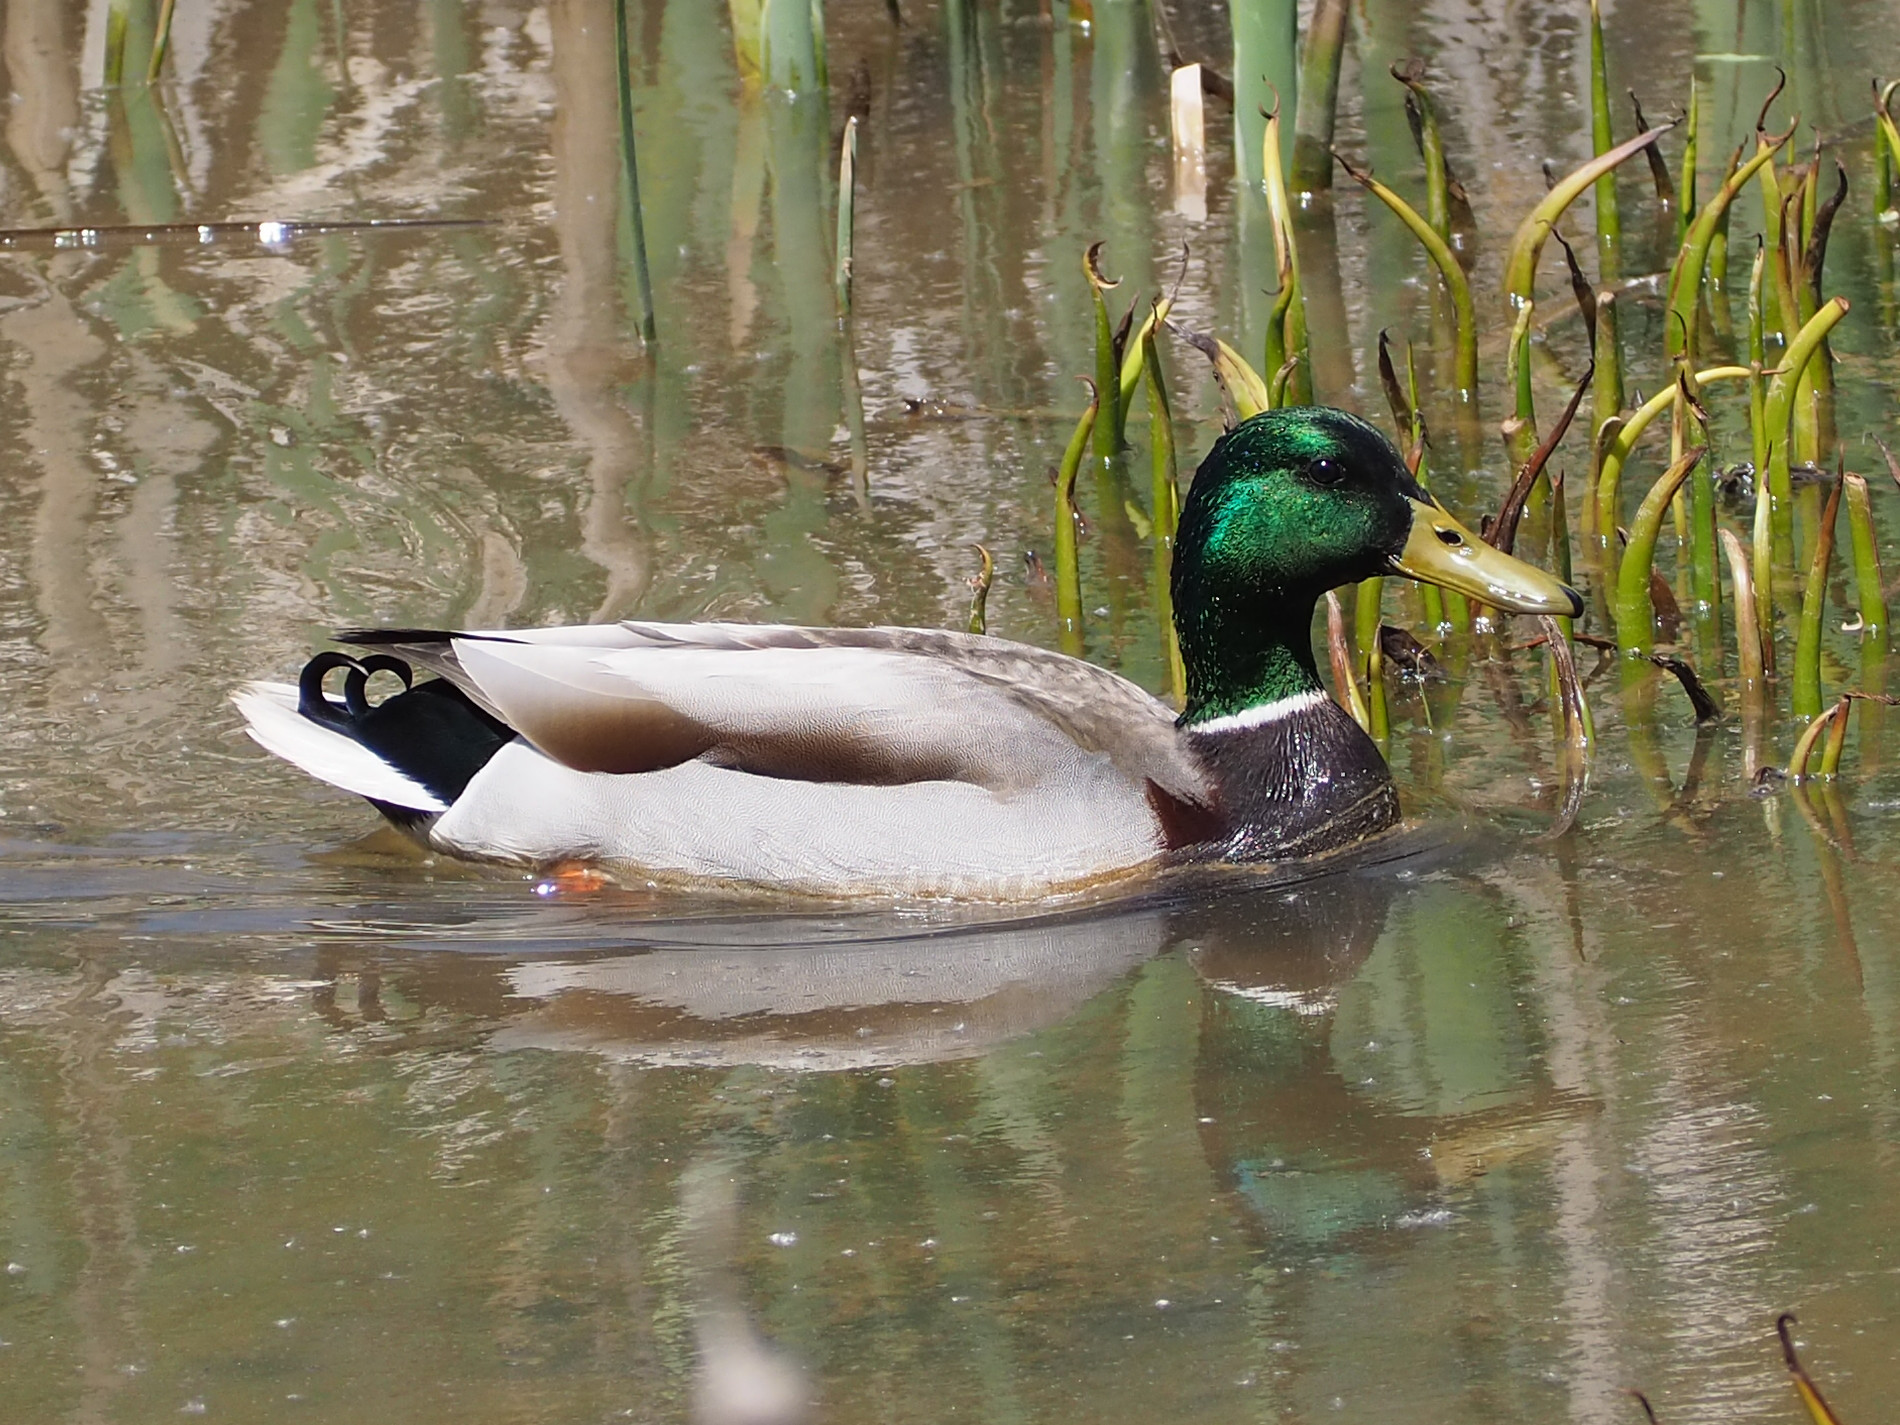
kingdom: Animalia
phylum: Chordata
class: Aves
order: Anseriformes
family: Anatidae
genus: Anas
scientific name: Anas platyrhynchos
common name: Mallard
